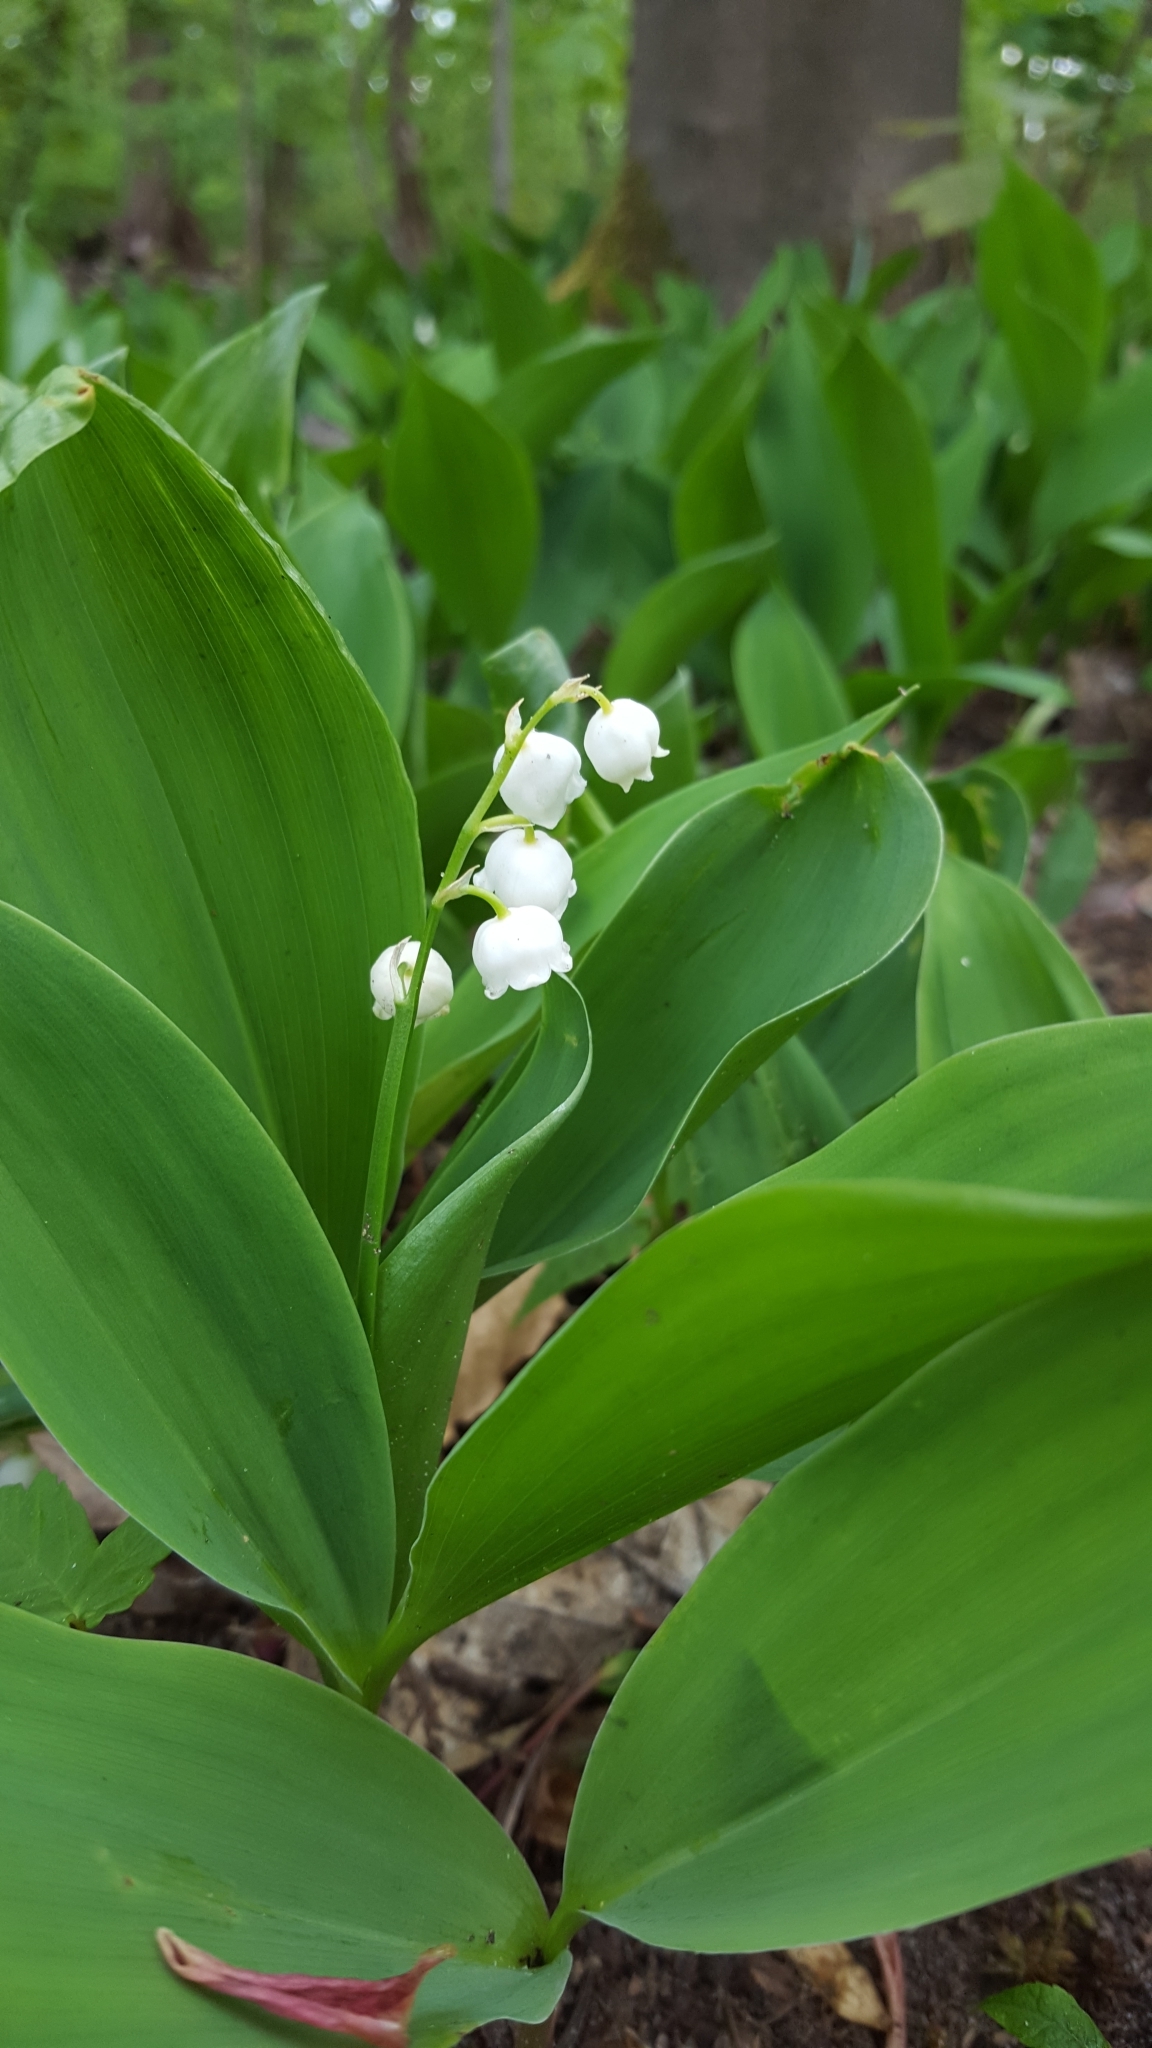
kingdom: Plantae
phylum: Tracheophyta
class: Liliopsida
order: Asparagales
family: Asparagaceae
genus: Convallaria
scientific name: Convallaria majalis
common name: Lily-of-the-valley
